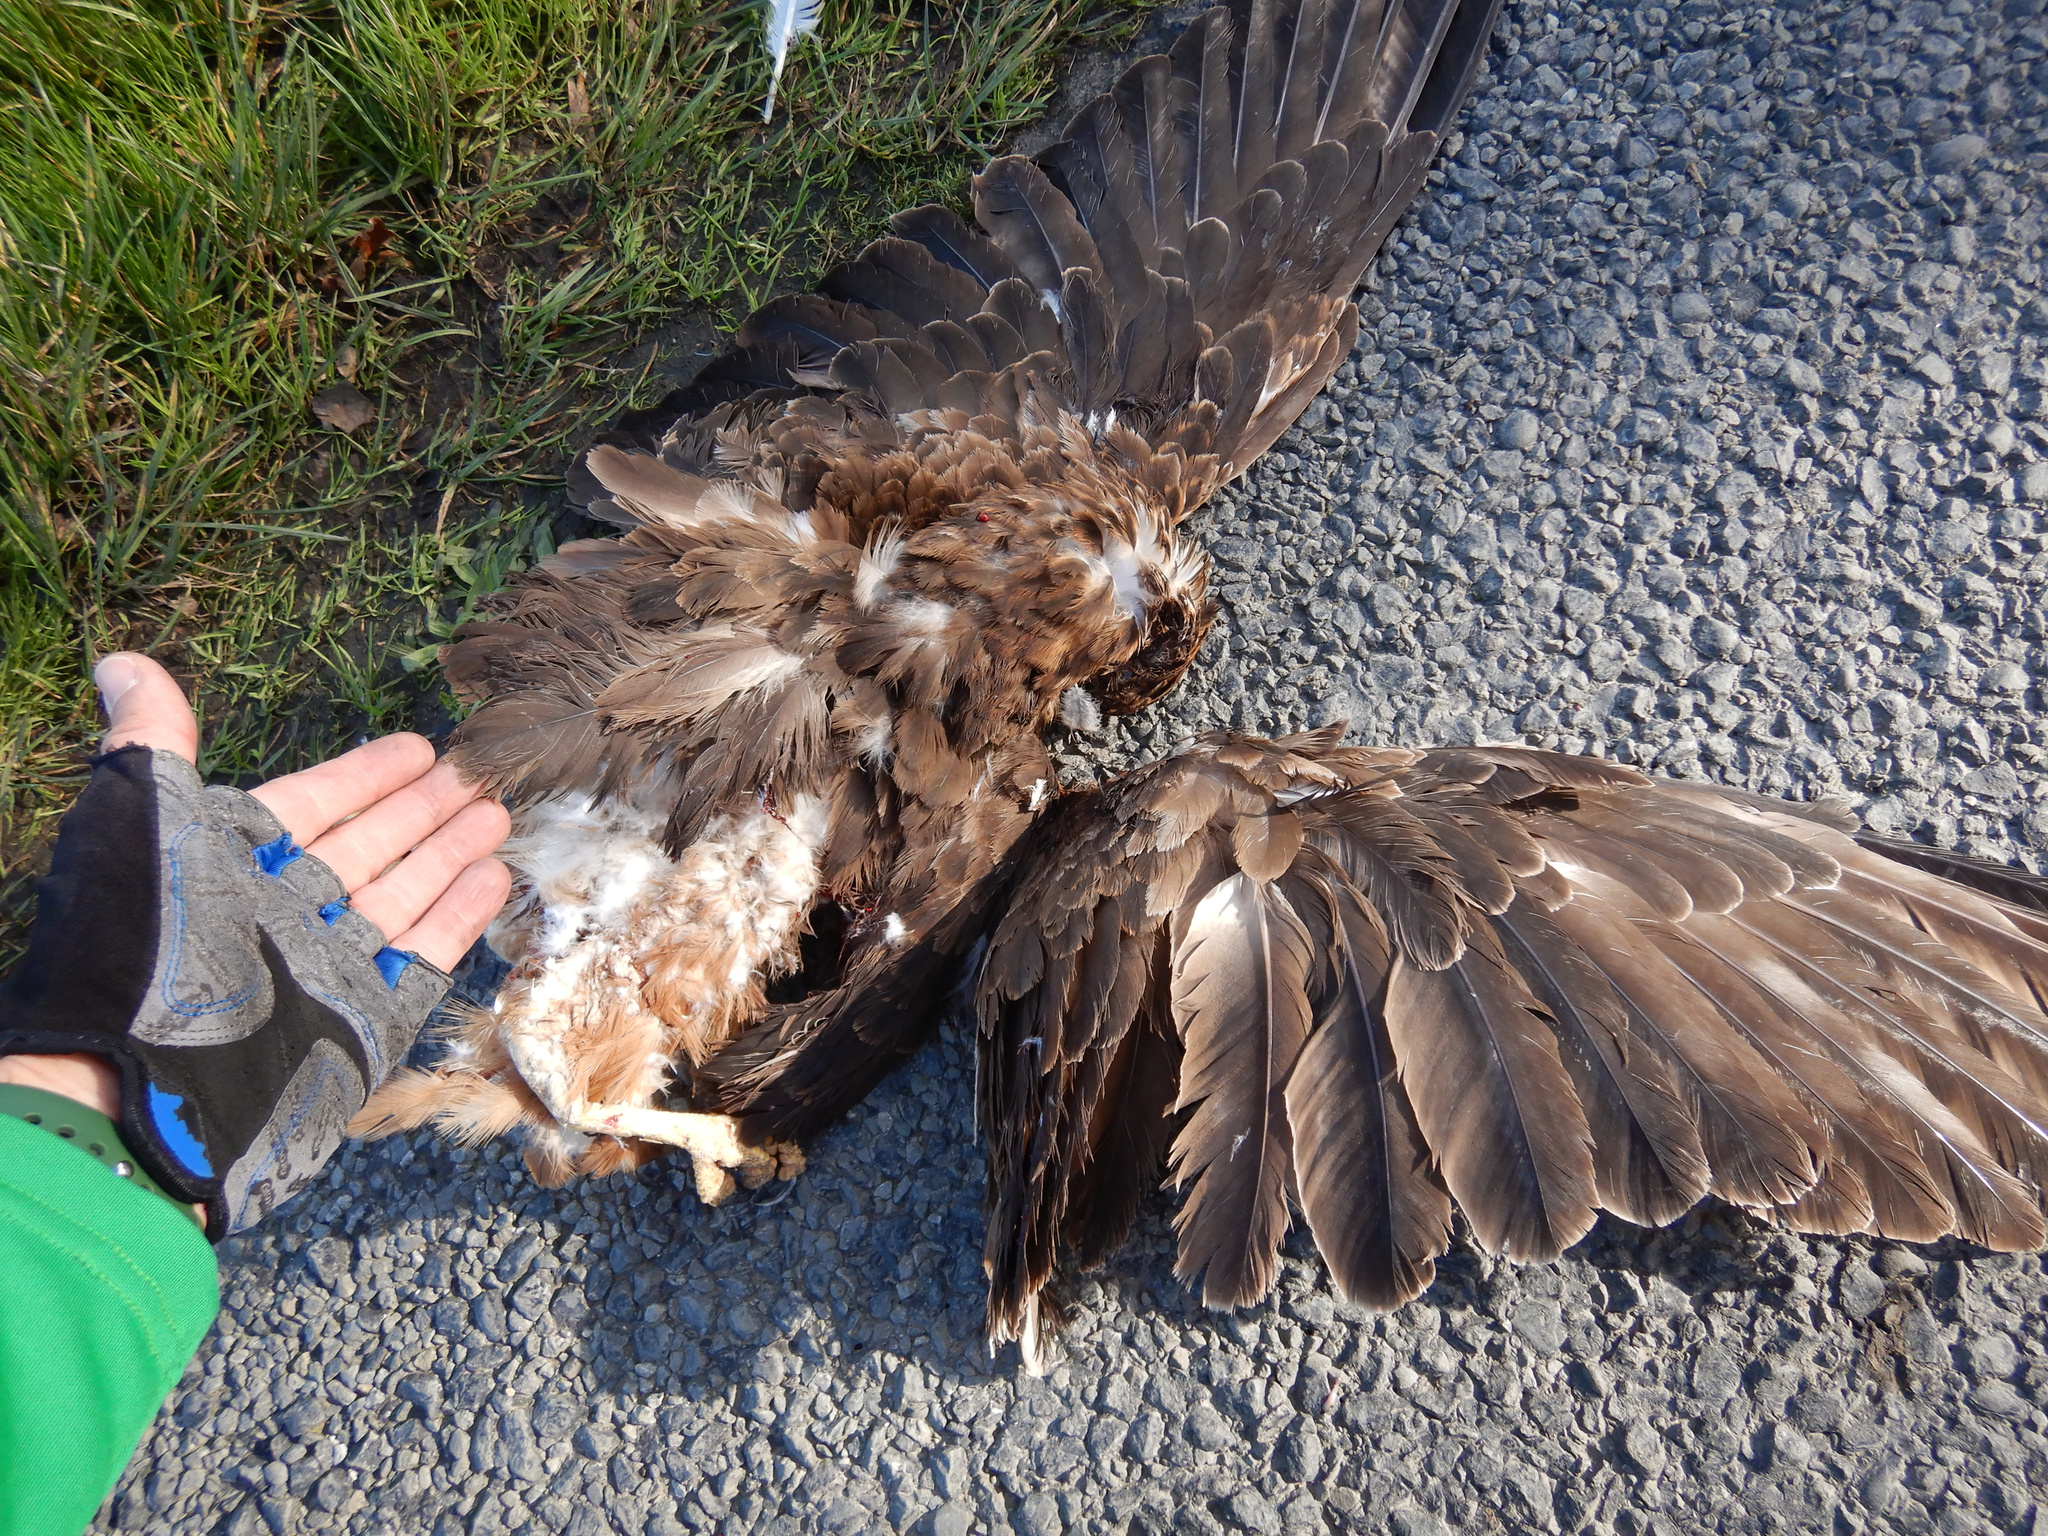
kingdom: Animalia
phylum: Chordata
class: Aves
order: Accipitriformes
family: Accipitridae
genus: Circus
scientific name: Circus approximans
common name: Swamp harrier
